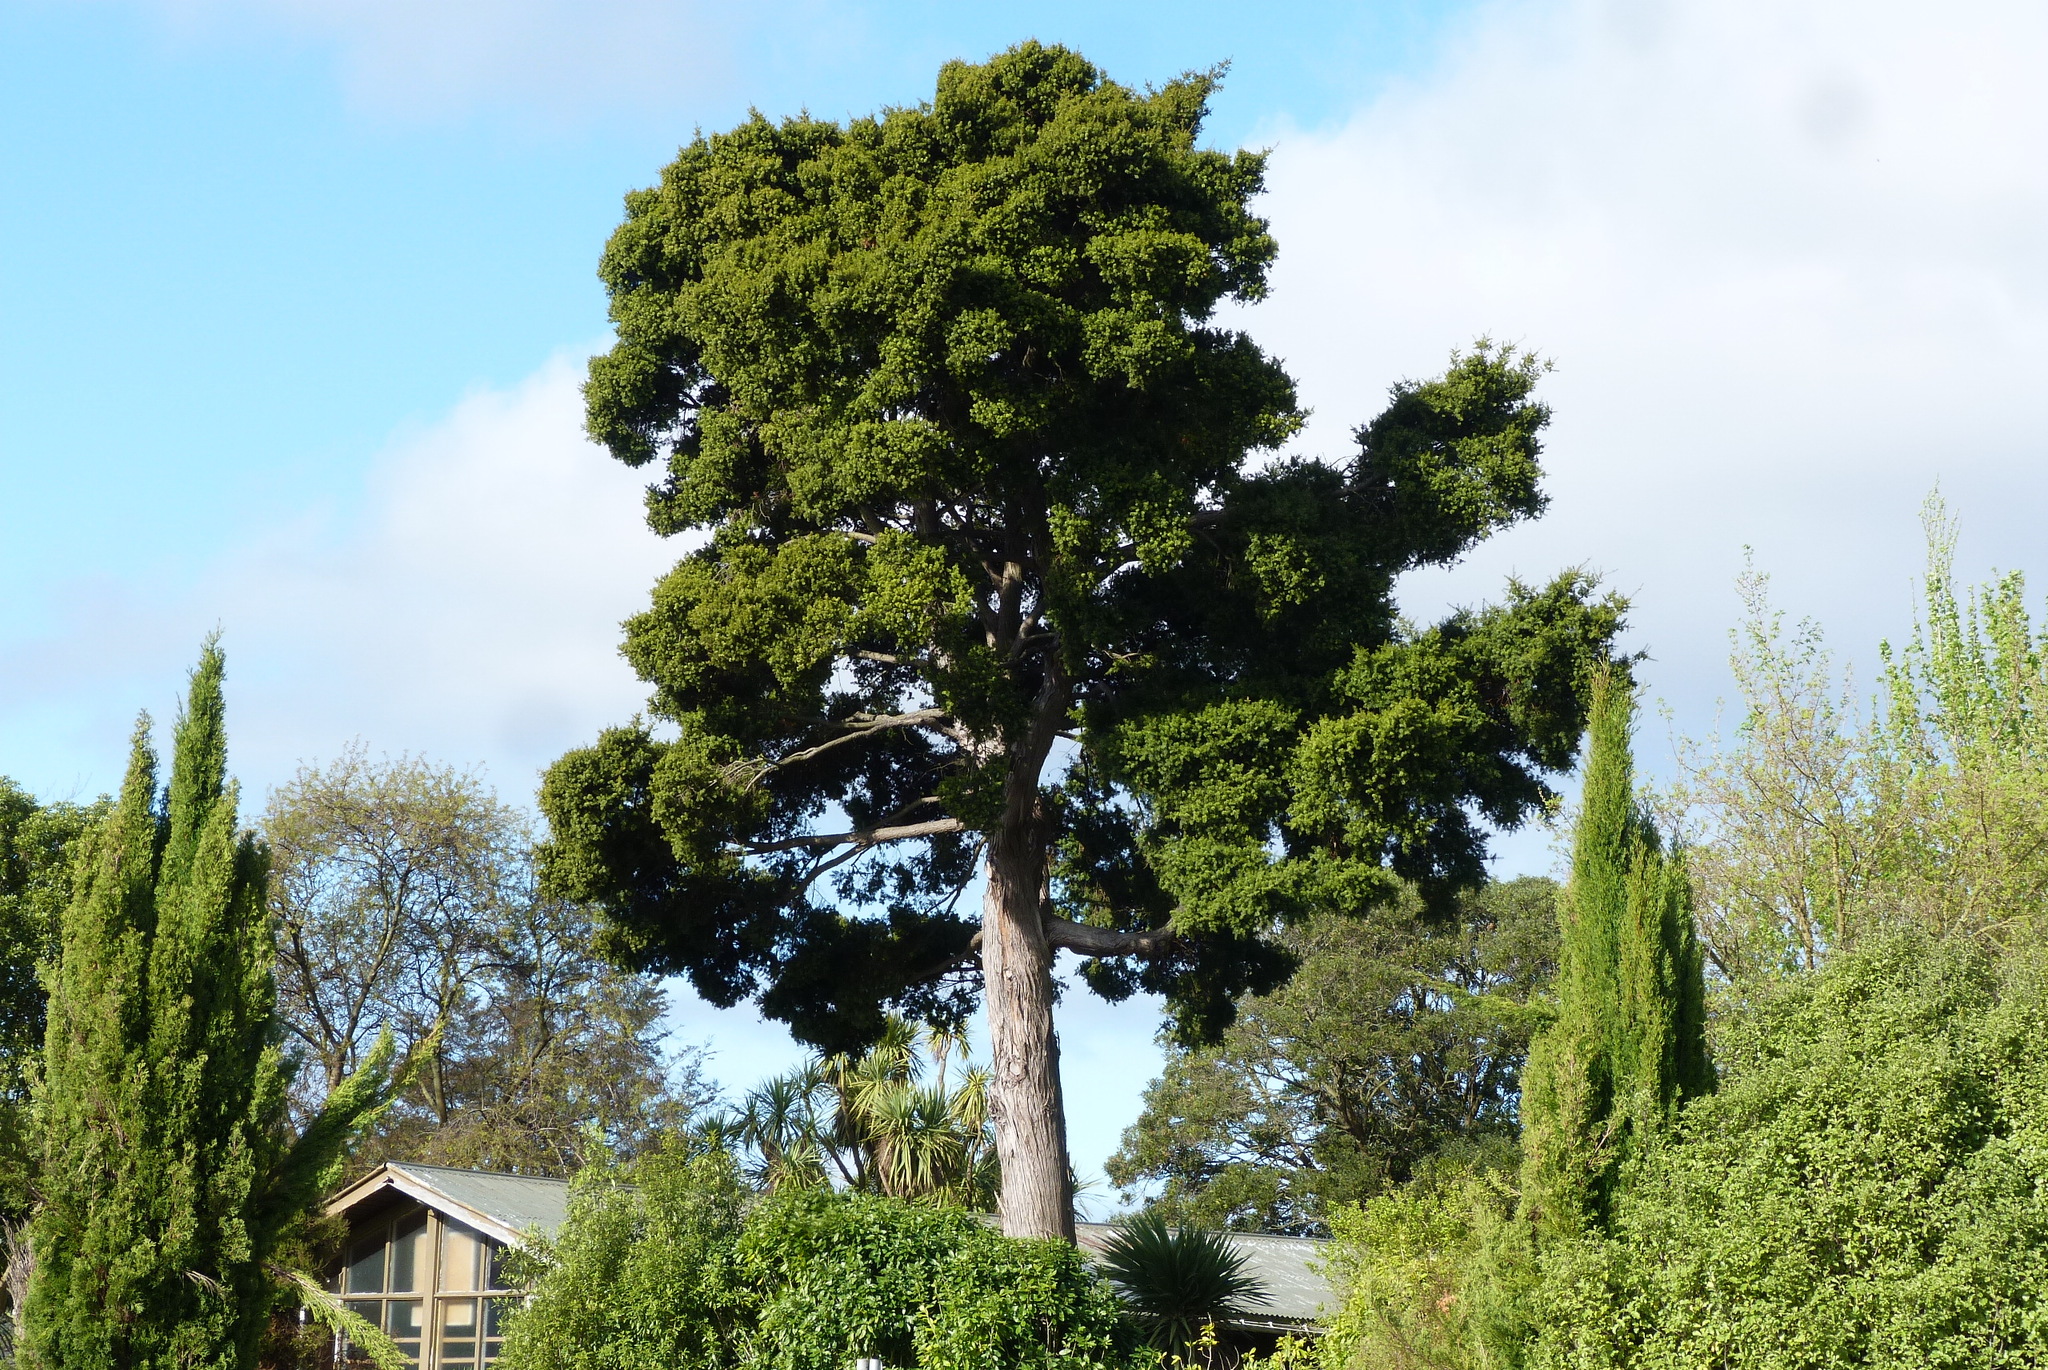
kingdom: Plantae
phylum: Tracheophyta
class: Pinopsida
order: Pinales
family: Podocarpaceae
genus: Podocarpus
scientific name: Podocarpus totara
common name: Totara
